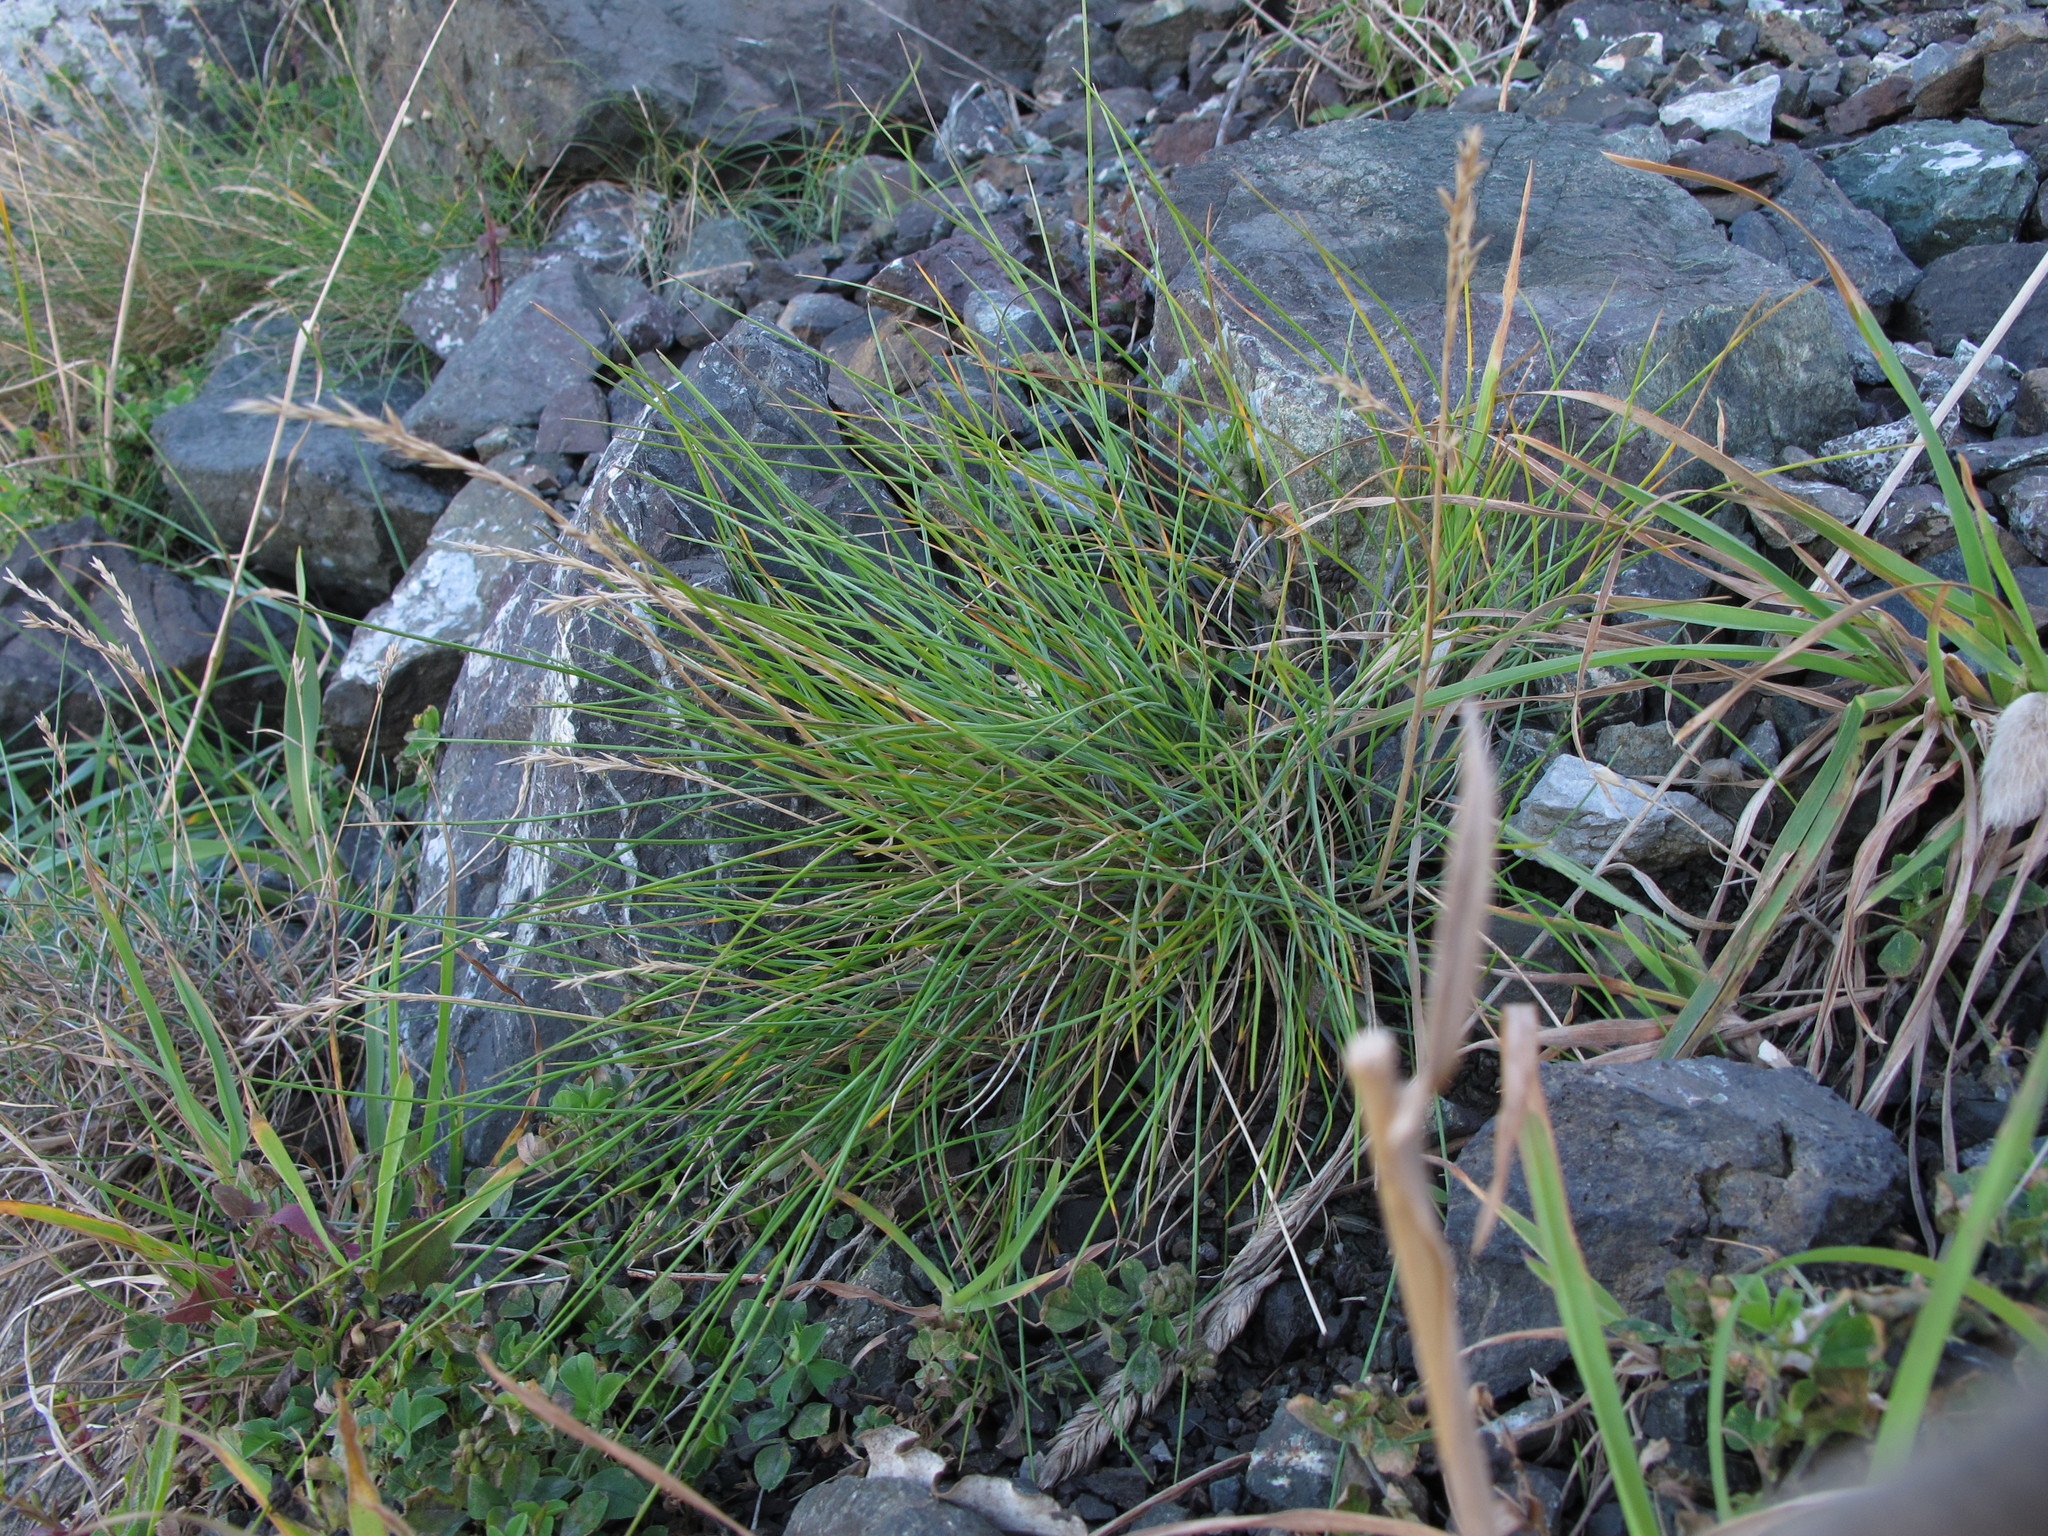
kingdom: Plantae
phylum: Tracheophyta
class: Liliopsida
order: Poales
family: Poaceae
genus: Festuca
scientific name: Festuca rubra
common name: Red fescue
